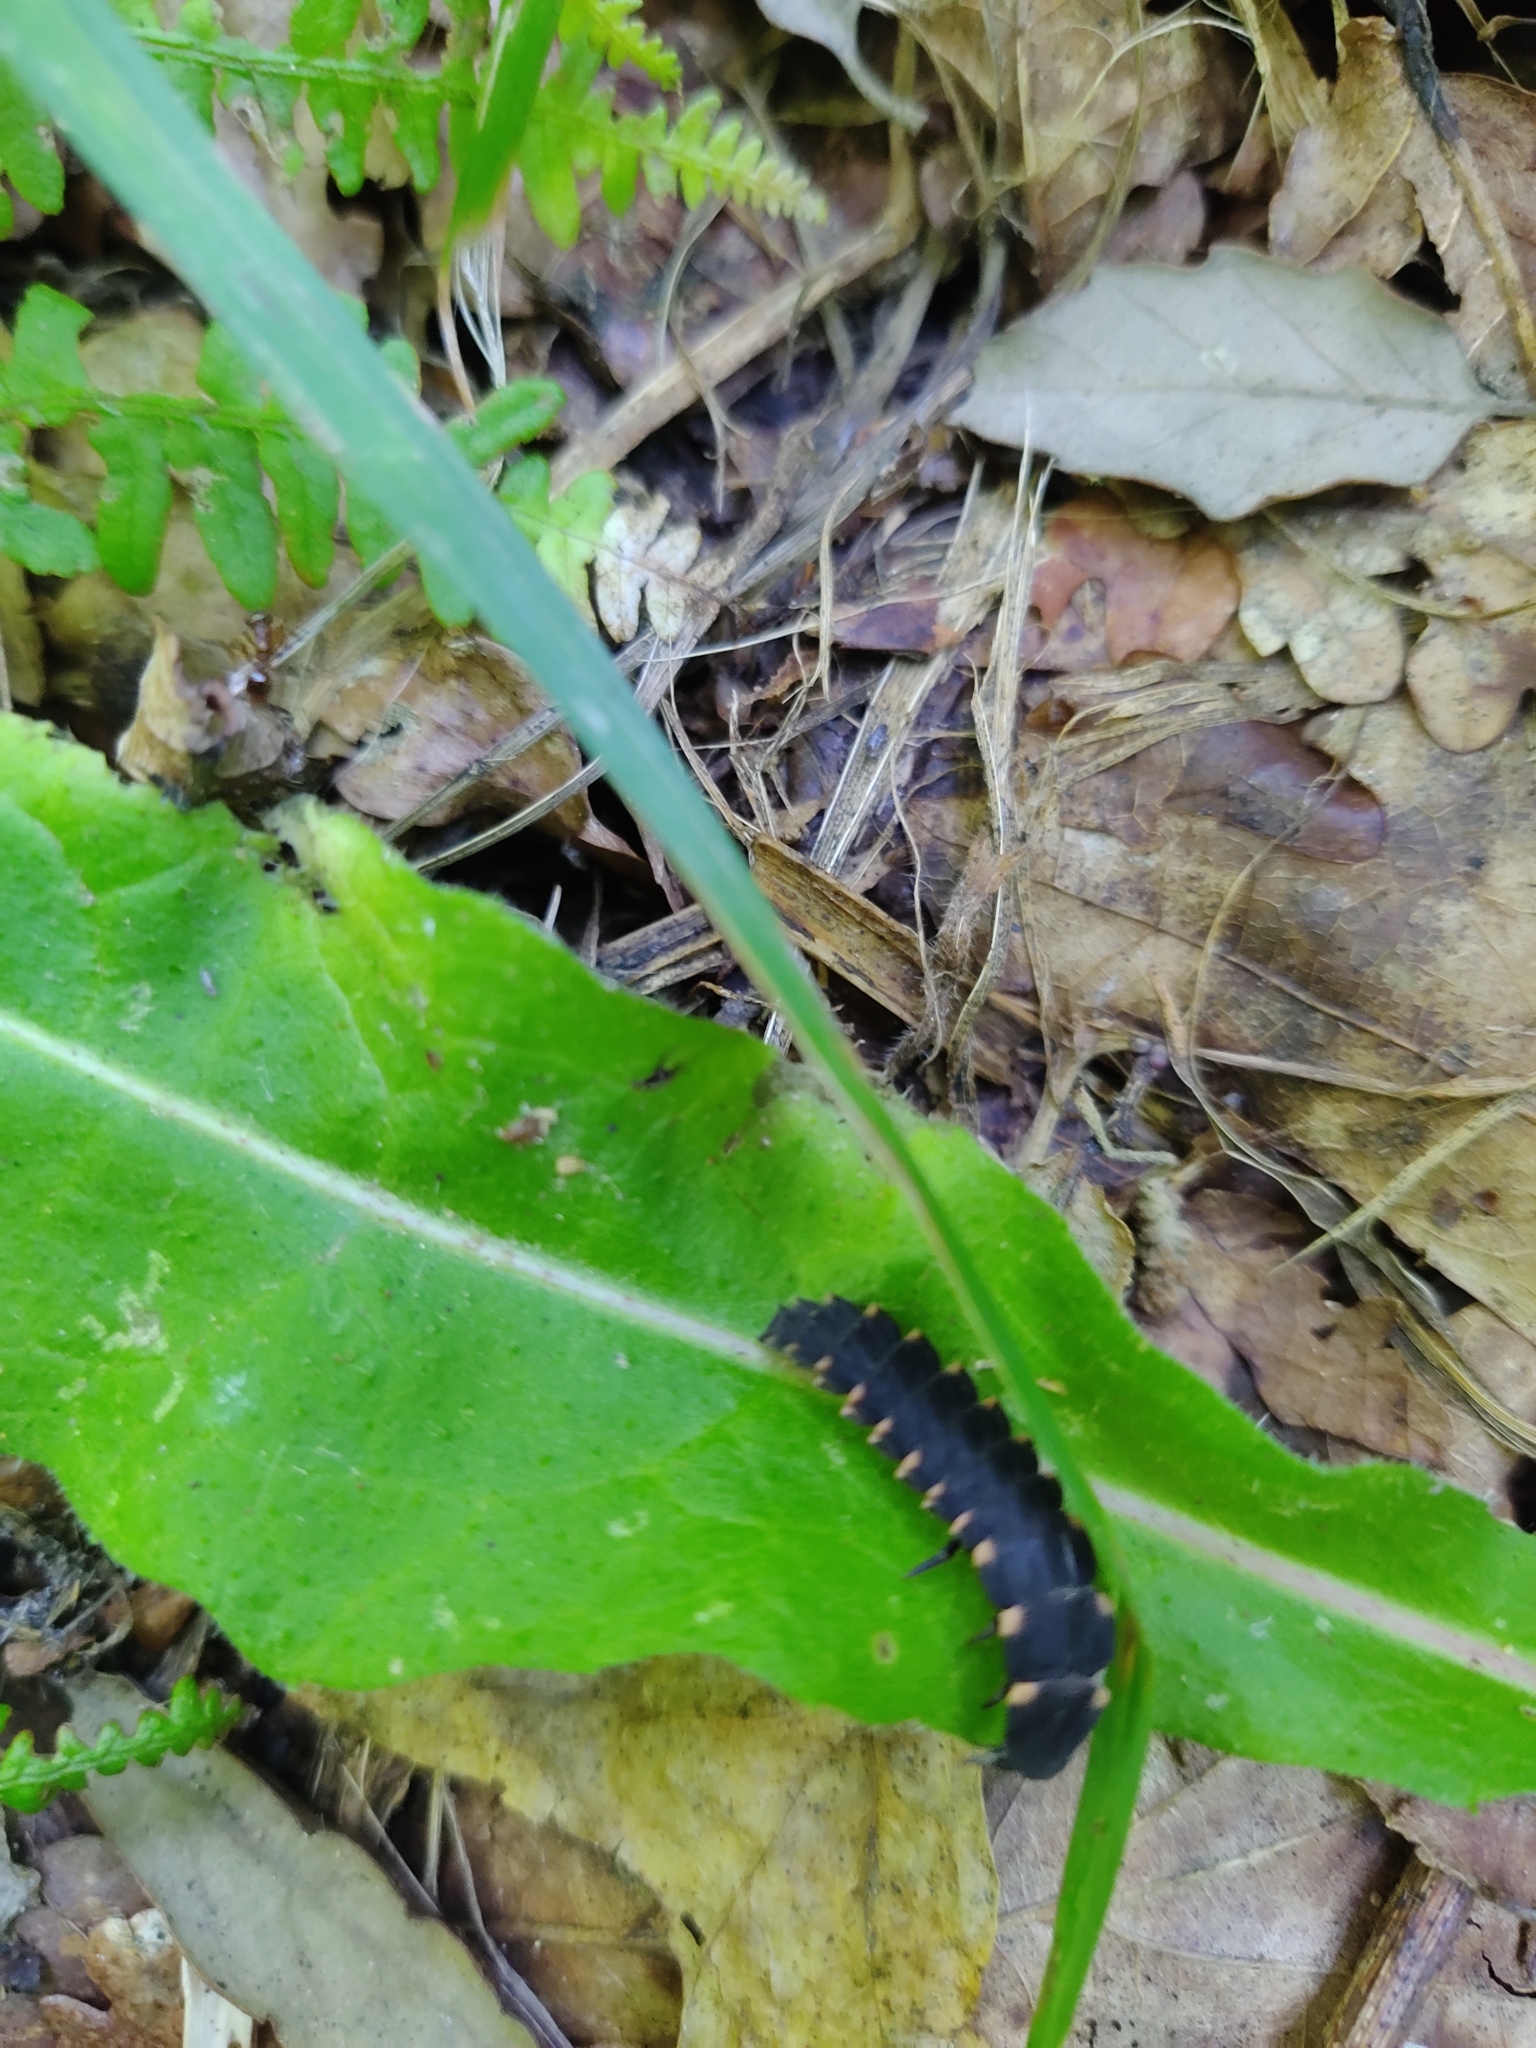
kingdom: Animalia
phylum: Arthropoda
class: Insecta
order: Coleoptera
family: Lampyridae
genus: Lampyris
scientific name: Lampyris noctiluca
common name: Glow-worm
